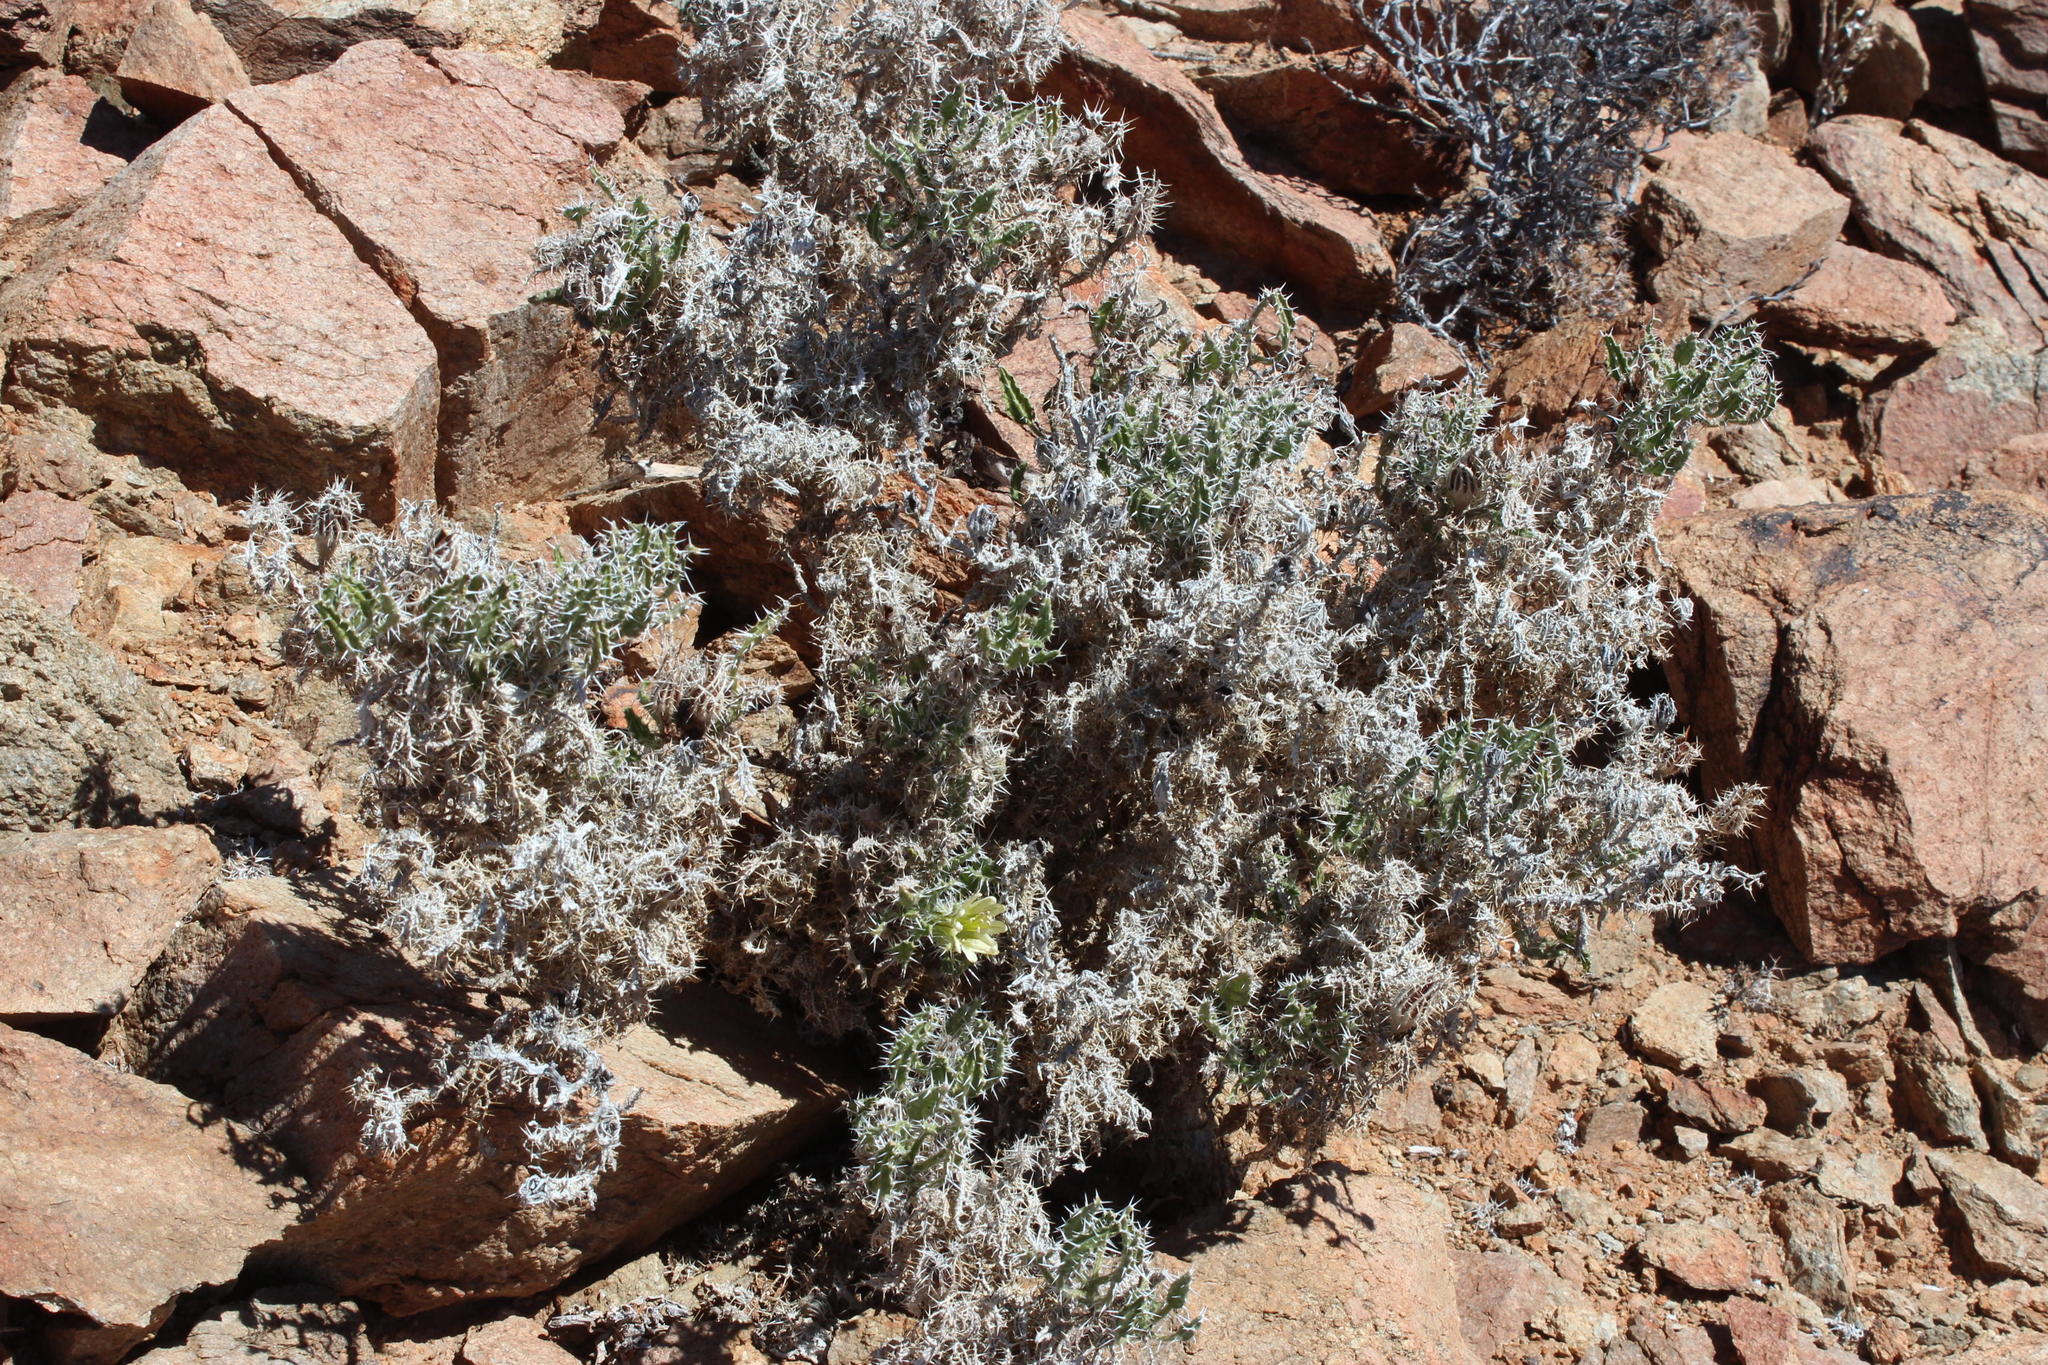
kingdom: Plantae
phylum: Tracheophyta
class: Magnoliopsida
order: Boraginales
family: Boraginaceae
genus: Codon
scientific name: Codon royenii
